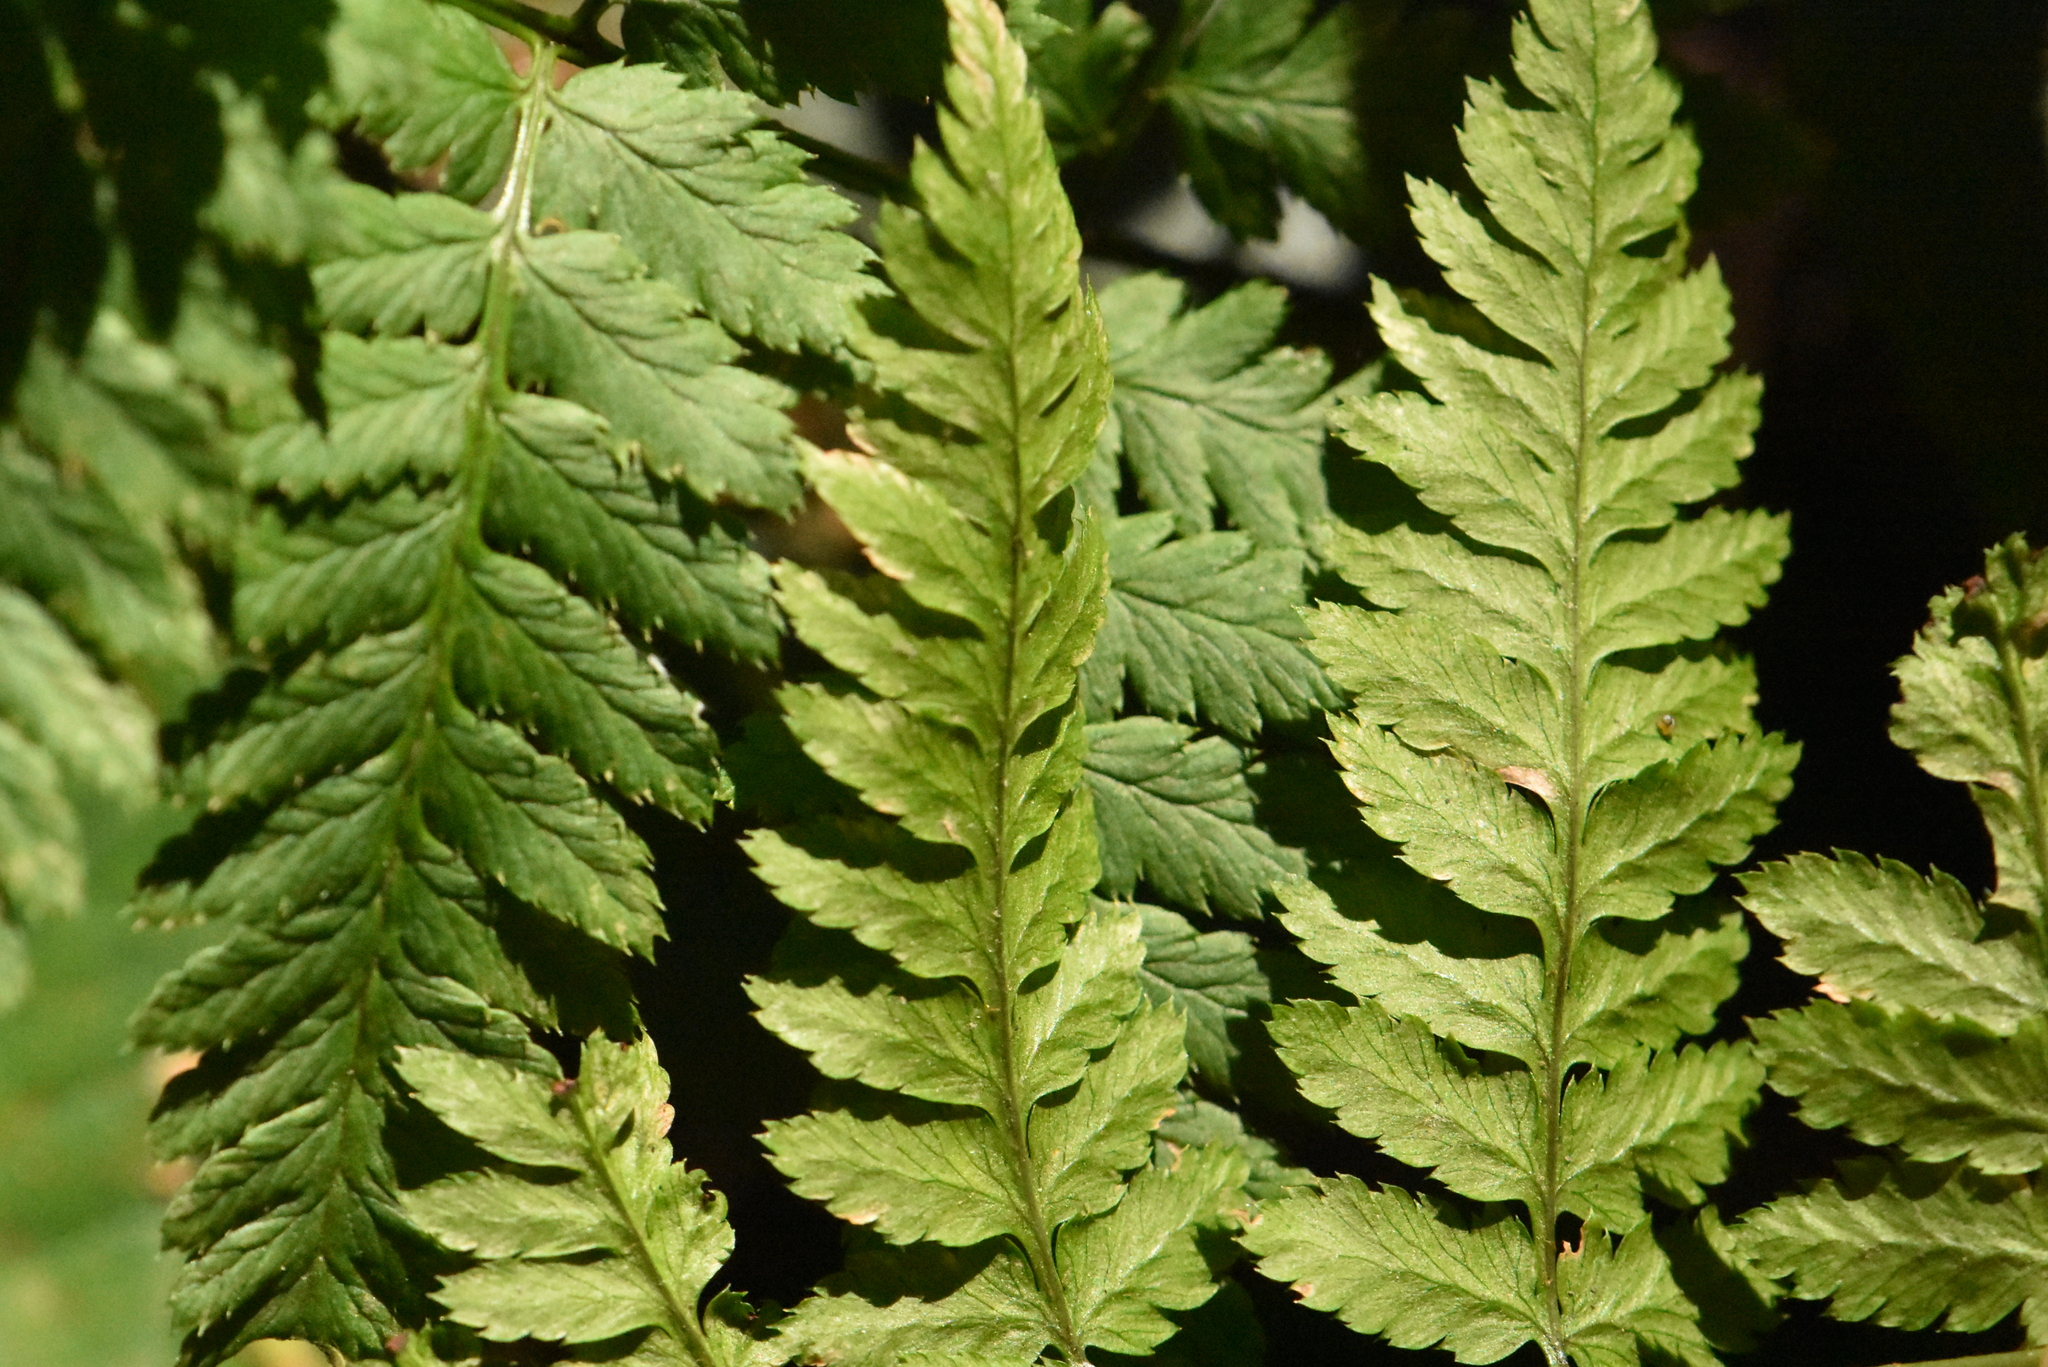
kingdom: Plantae
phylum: Tracheophyta
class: Polypodiopsida
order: Polypodiales
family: Dryopteridaceae
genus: Dryopteris
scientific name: Dryopteris carthusiana
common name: Narrow buckler-fern
